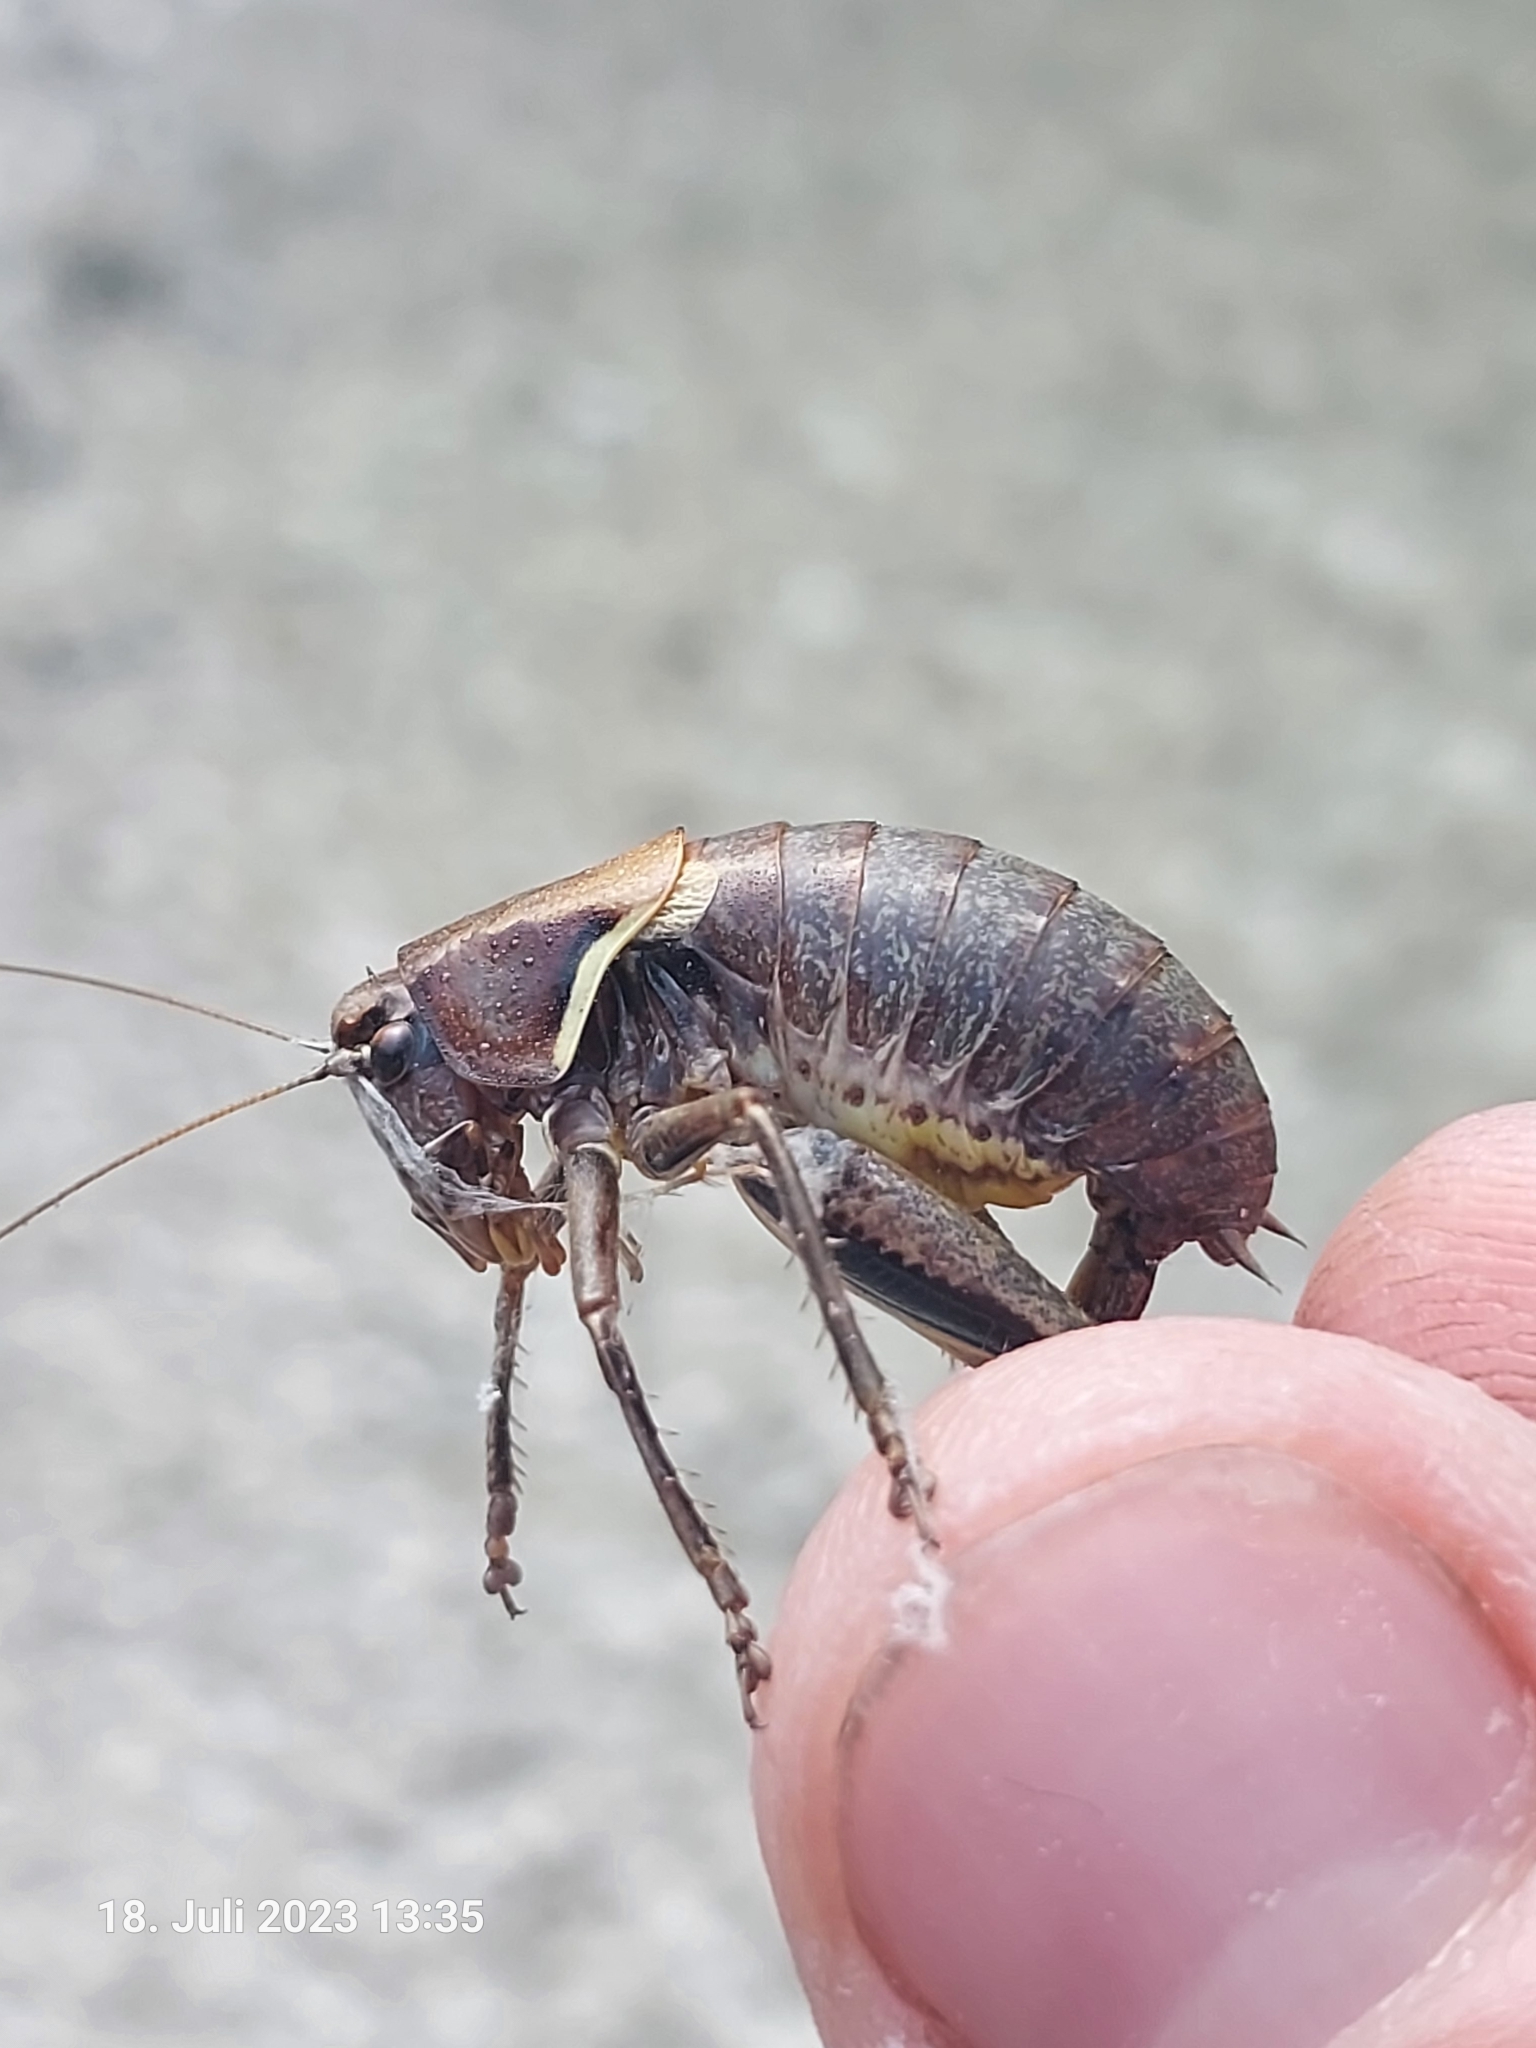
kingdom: Animalia
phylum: Arthropoda
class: Insecta
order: Orthoptera
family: Tettigoniidae
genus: Pholidoptera
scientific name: Pholidoptera aptera
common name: Alpine dark bush-cricket
